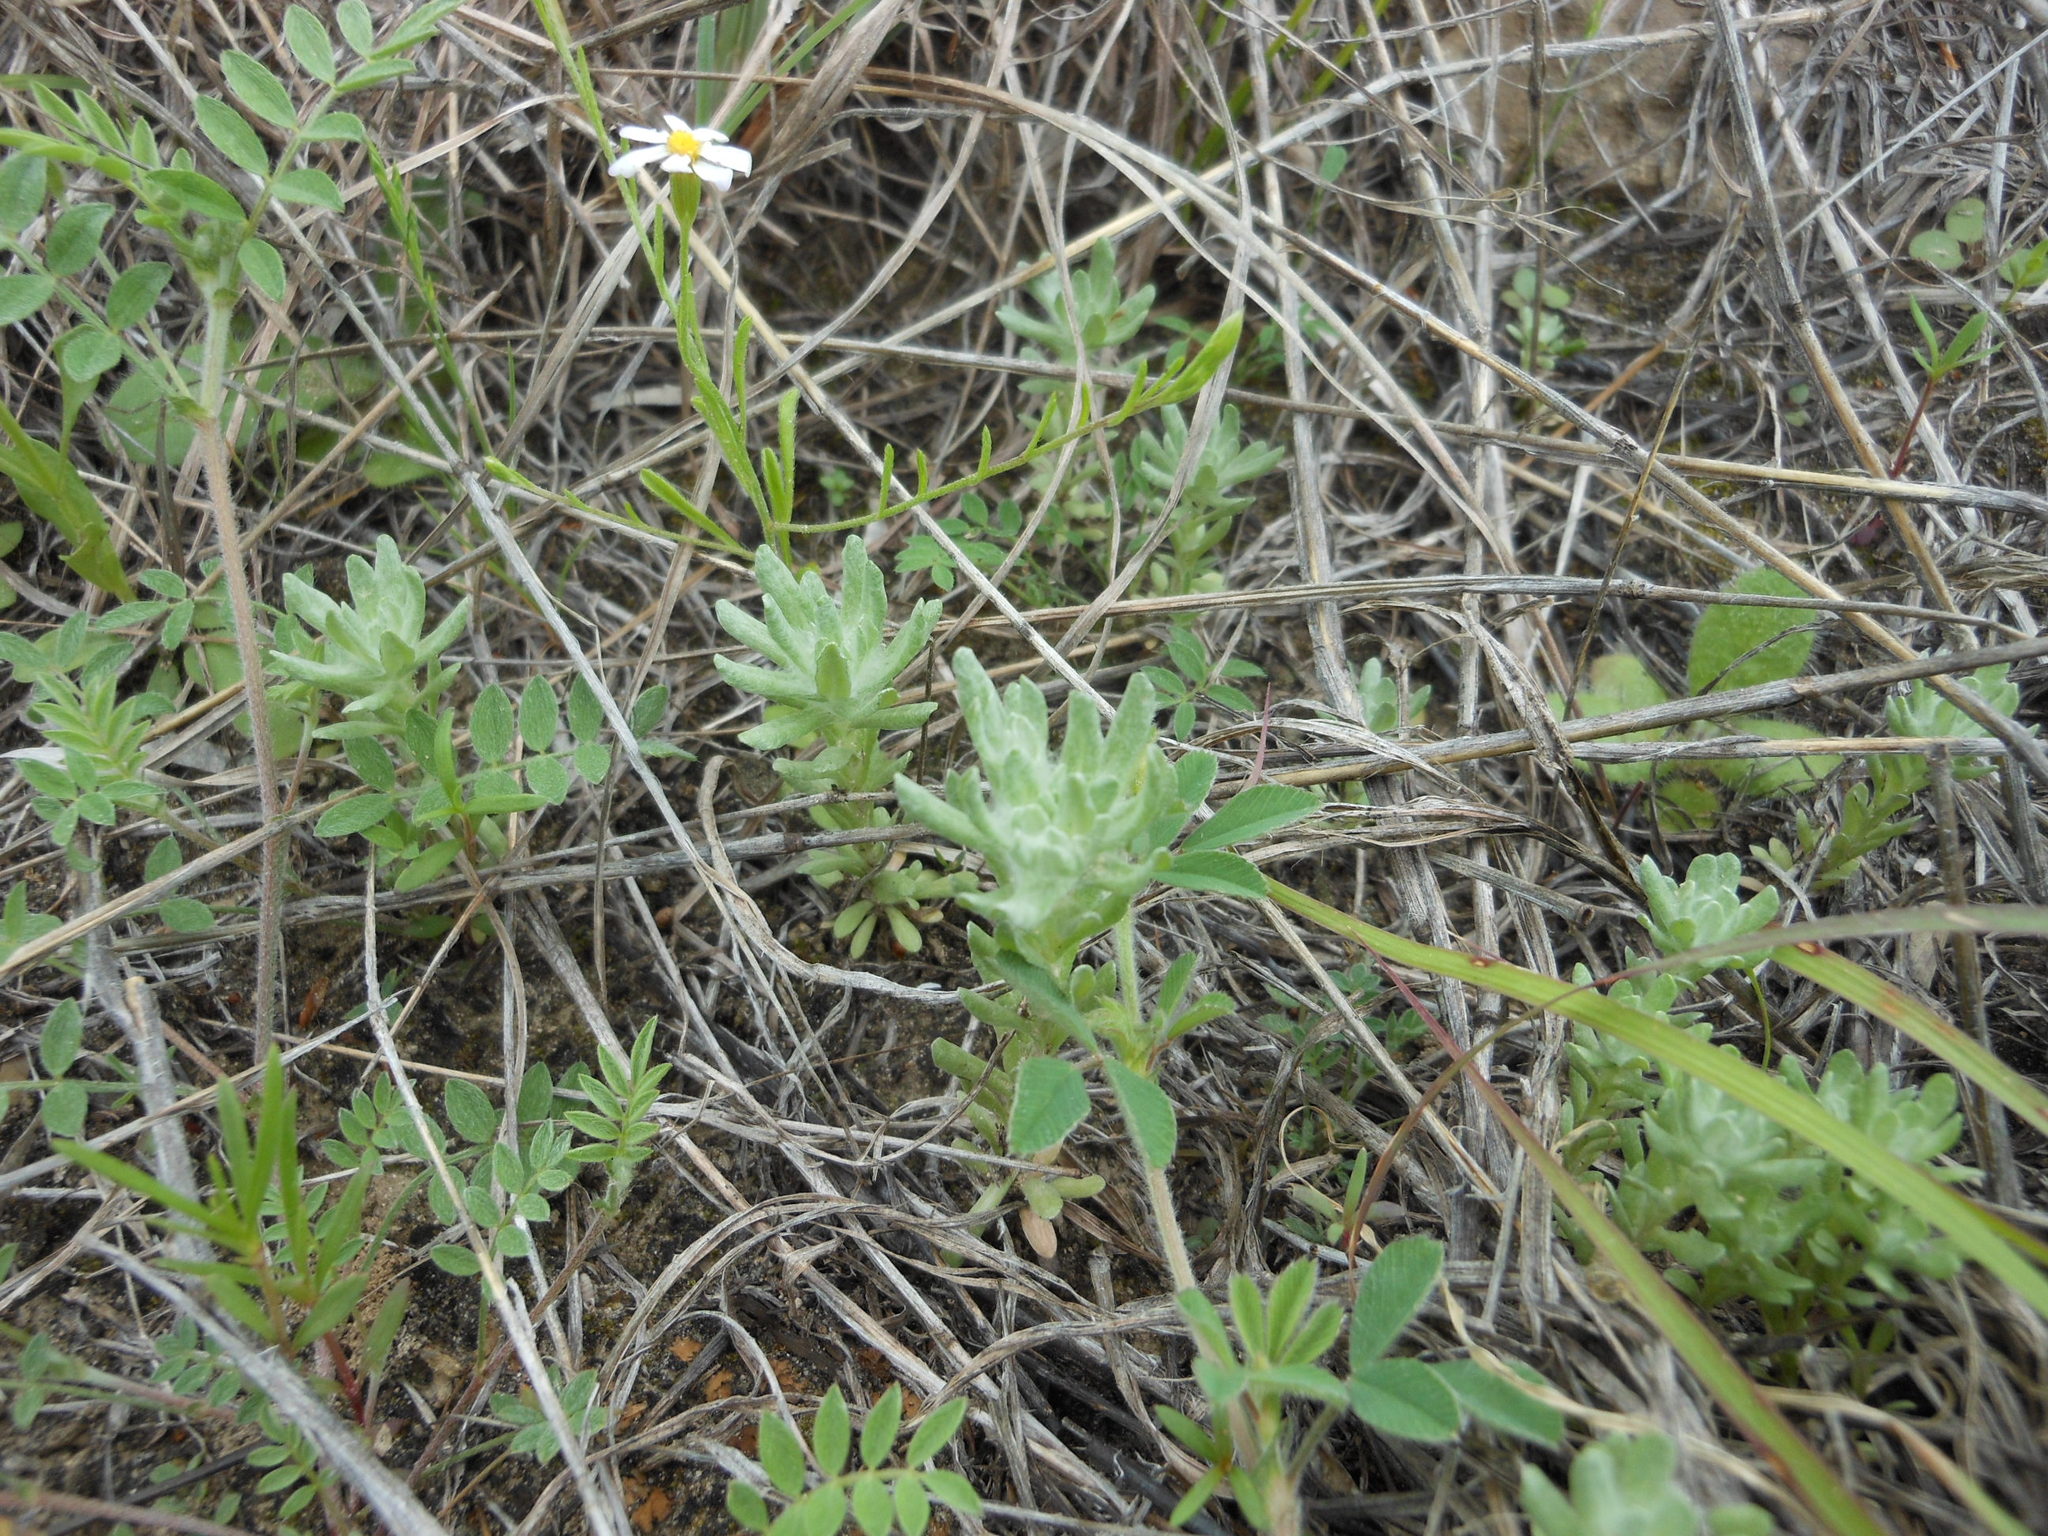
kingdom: Plantae
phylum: Tracheophyta
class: Magnoliopsida
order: Asterales
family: Asteraceae
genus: Diaperia
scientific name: Diaperia prolifera
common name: Big-head rabbit-tobacco
